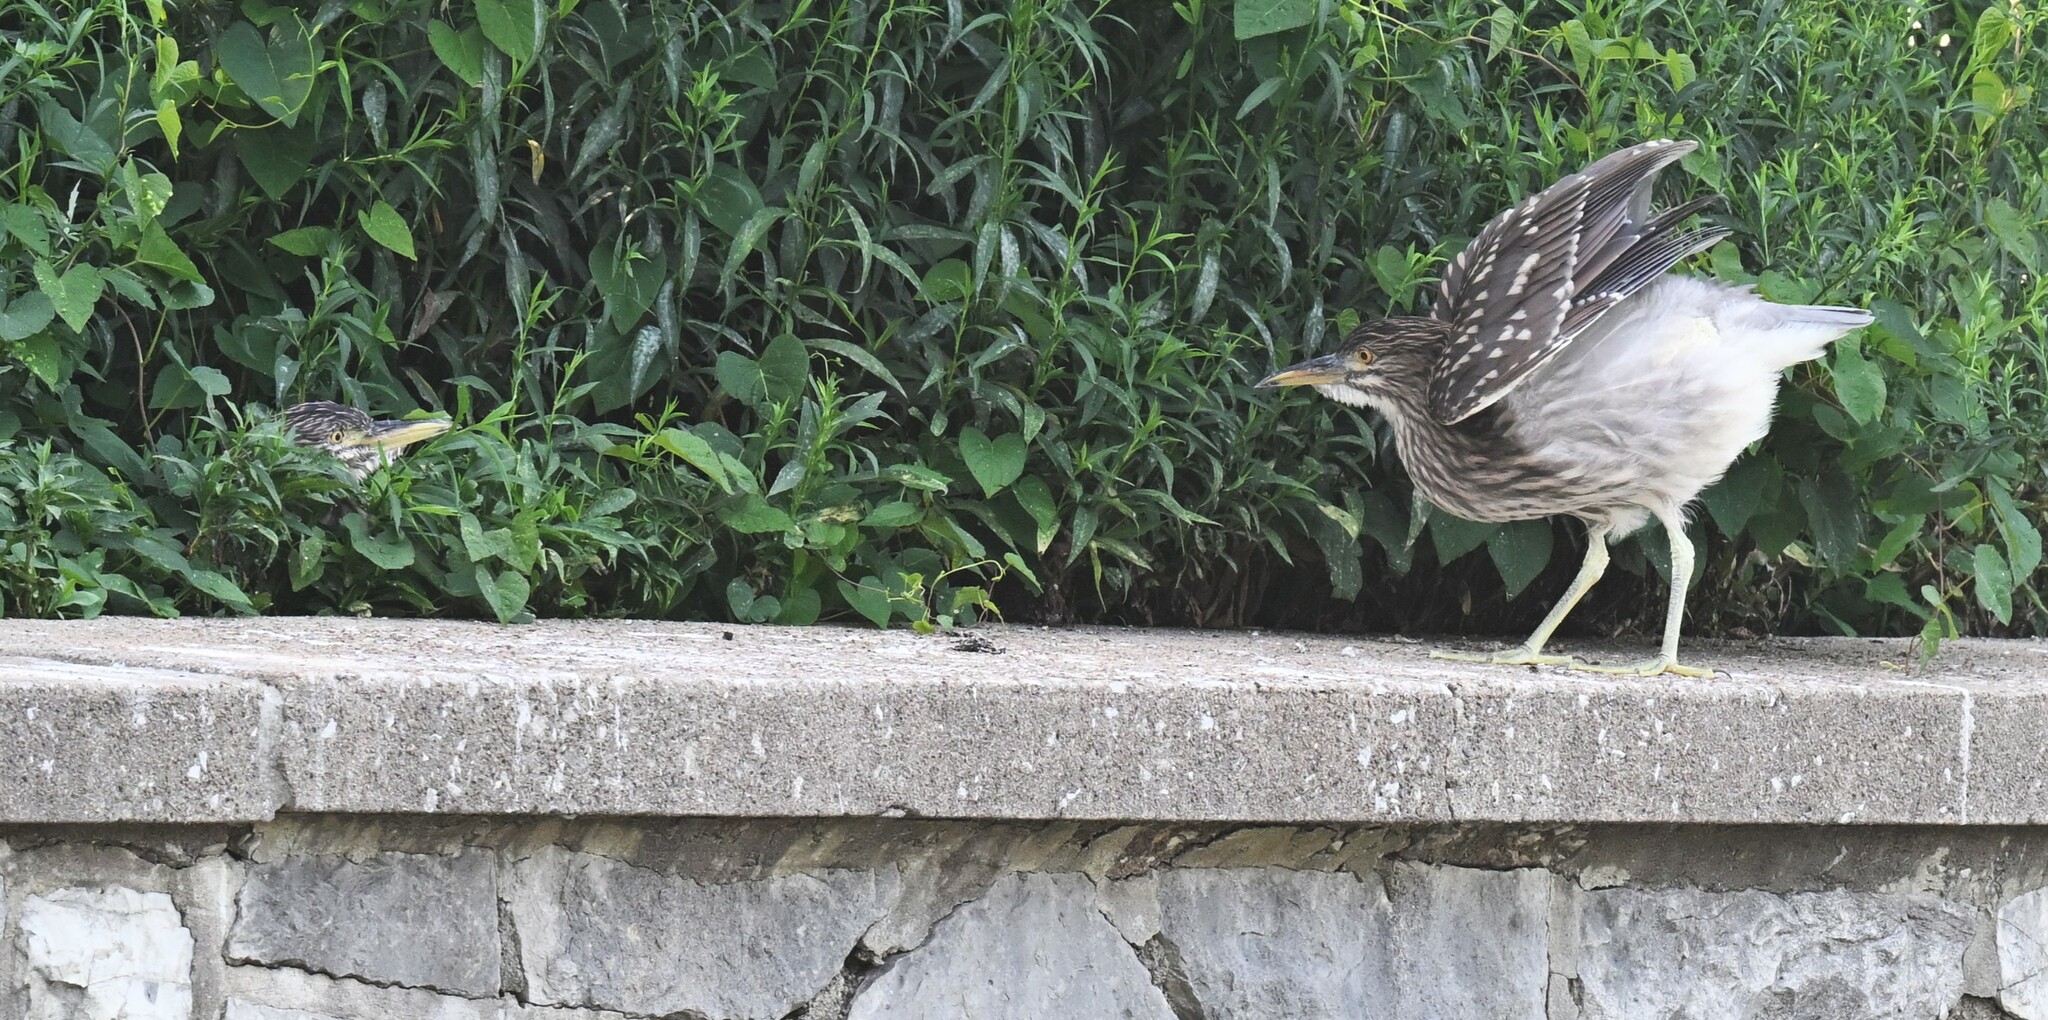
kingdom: Animalia
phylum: Chordata
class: Aves
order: Pelecaniformes
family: Ardeidae
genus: Nycticorax
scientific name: Nycticorax nycticorax
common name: Black-crowned night heron
